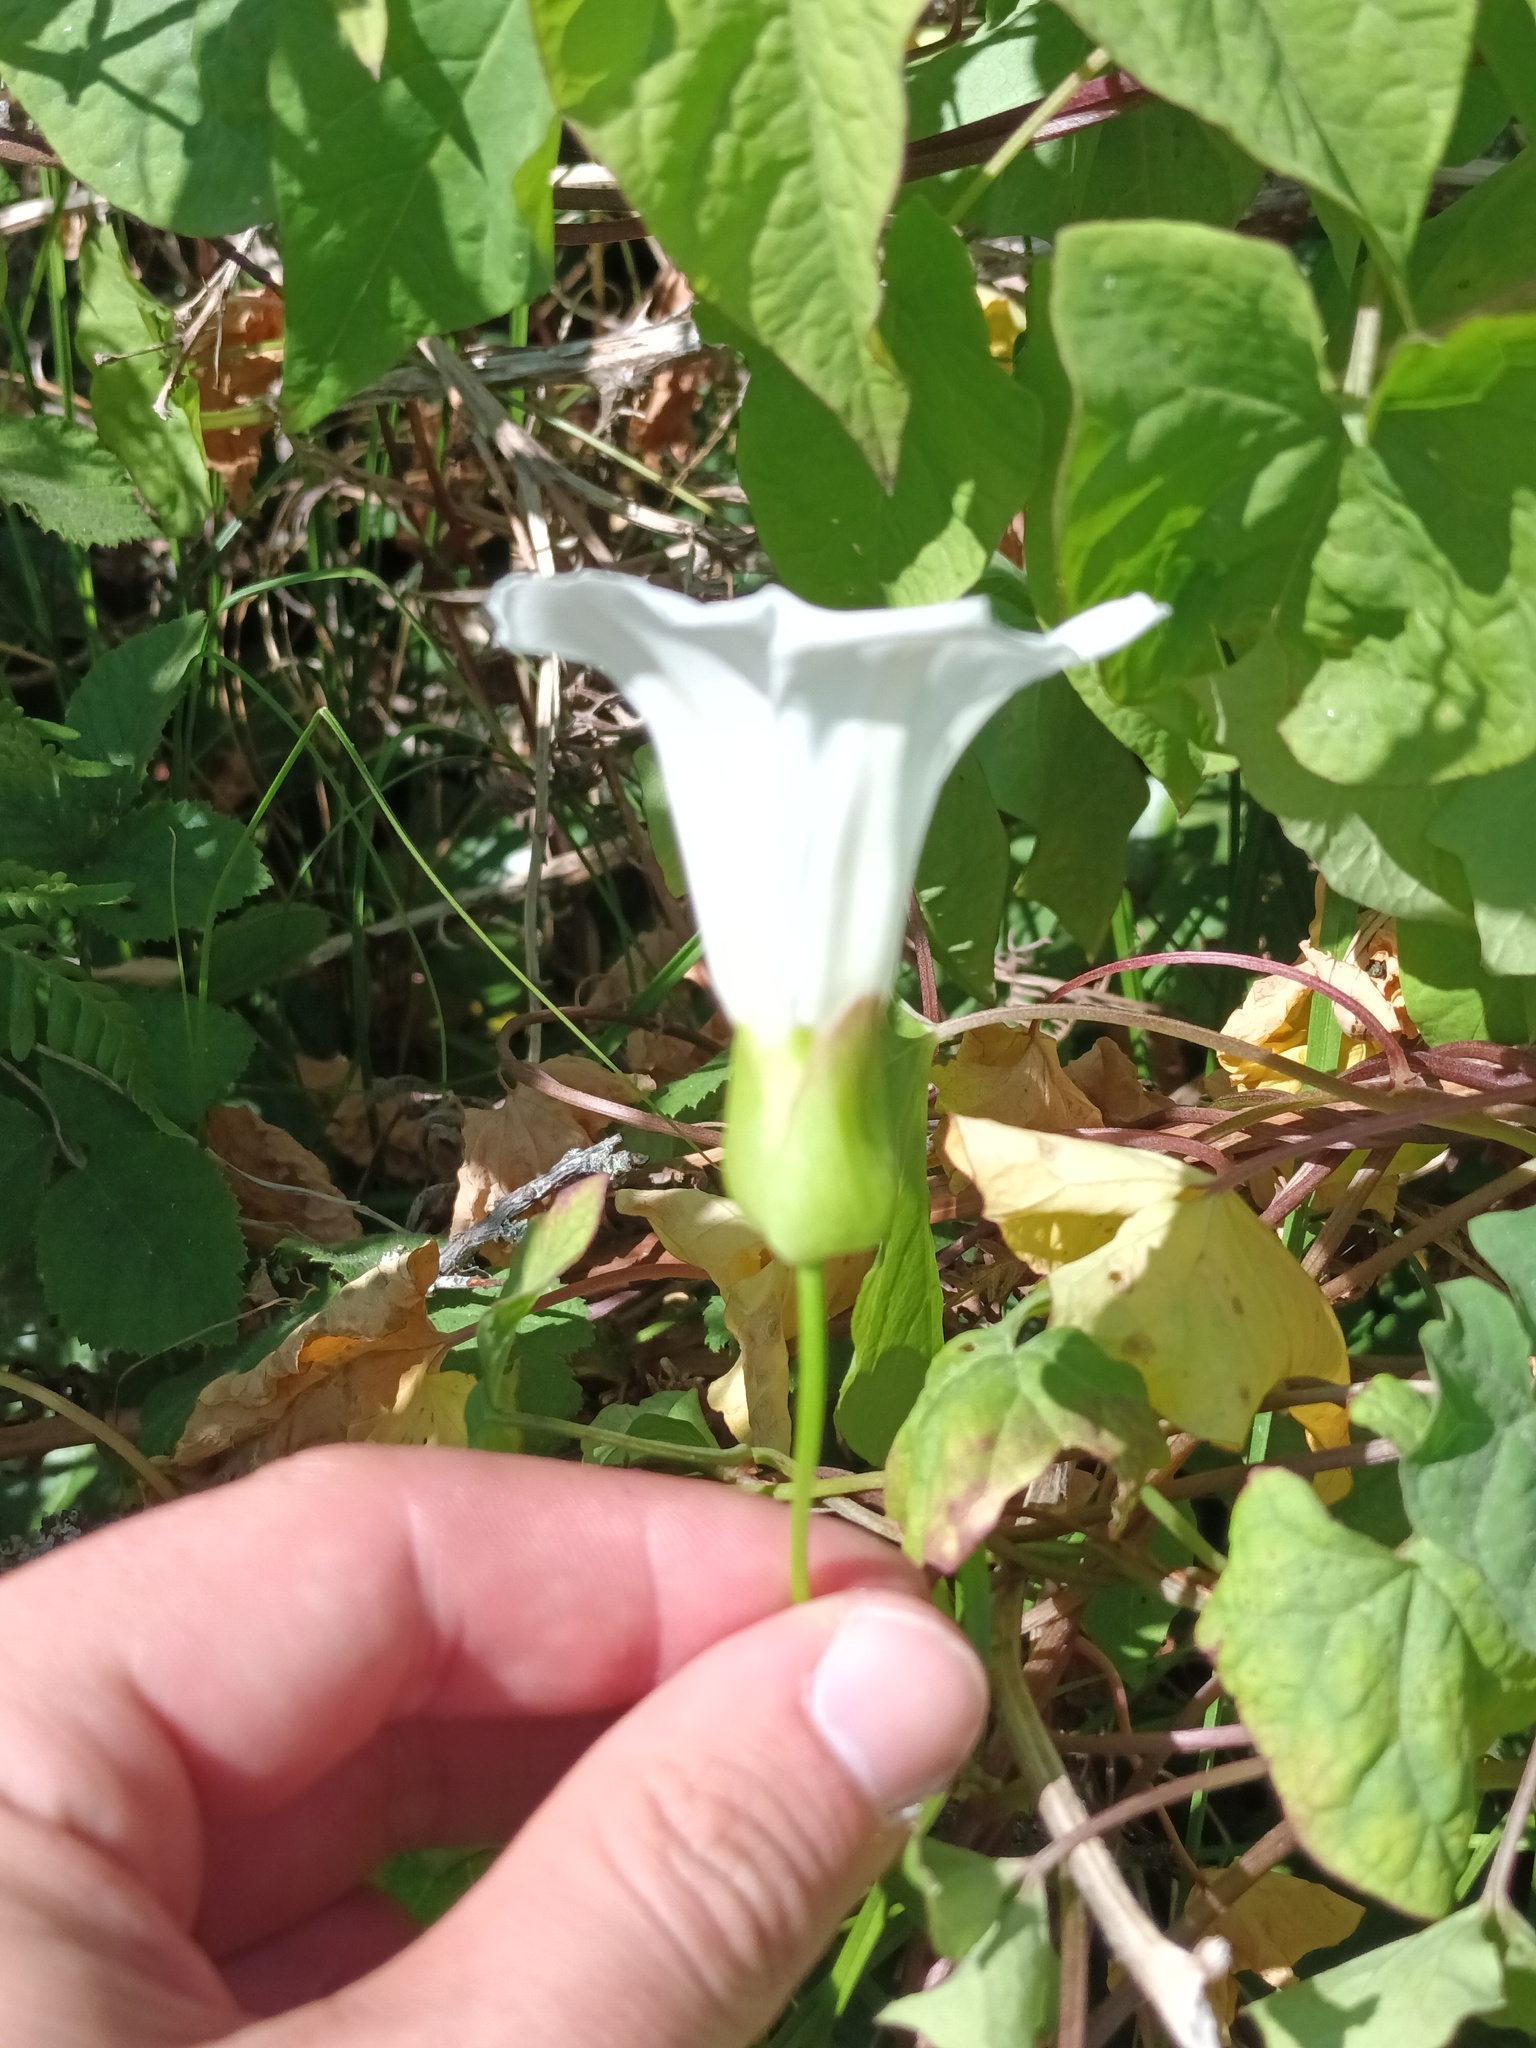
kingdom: Plantae
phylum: Tracheophyta
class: Magnoliopsida
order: Solanales
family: Convolvulaceae
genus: Calystegia
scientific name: Calystegia silvatica
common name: Large bindweed
